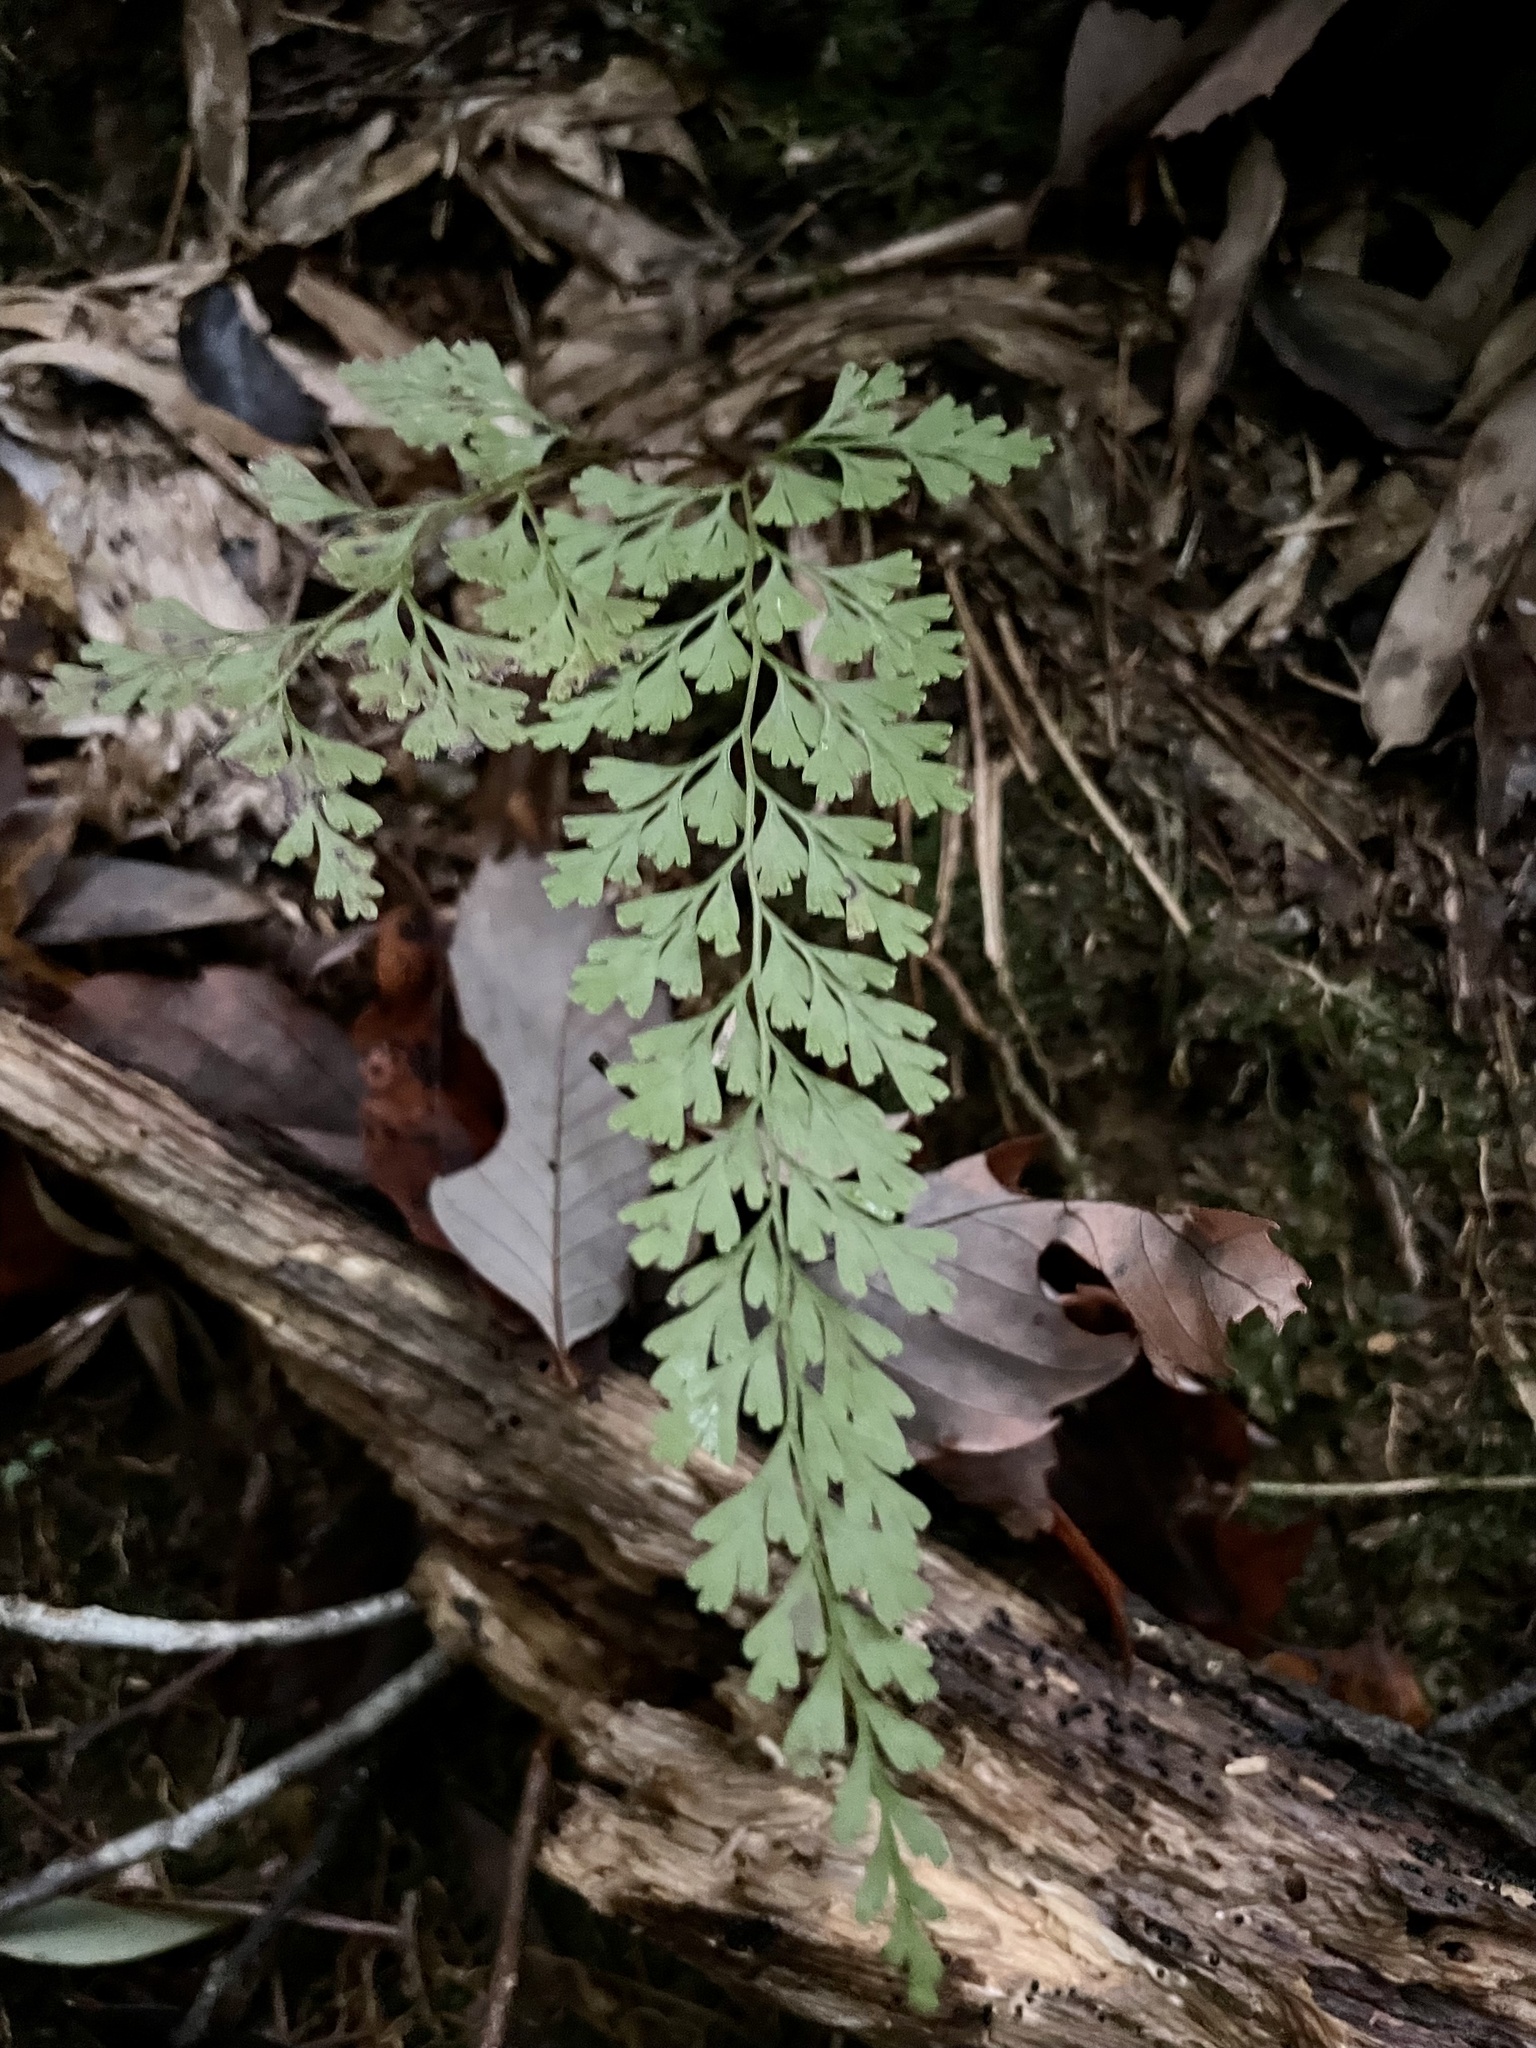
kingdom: Plantae
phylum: Tracheophyta
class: Polypodiopsida
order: Polypodiales
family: Lindsaeaceae
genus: Odontosoria
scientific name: Odontosoria chinensis
